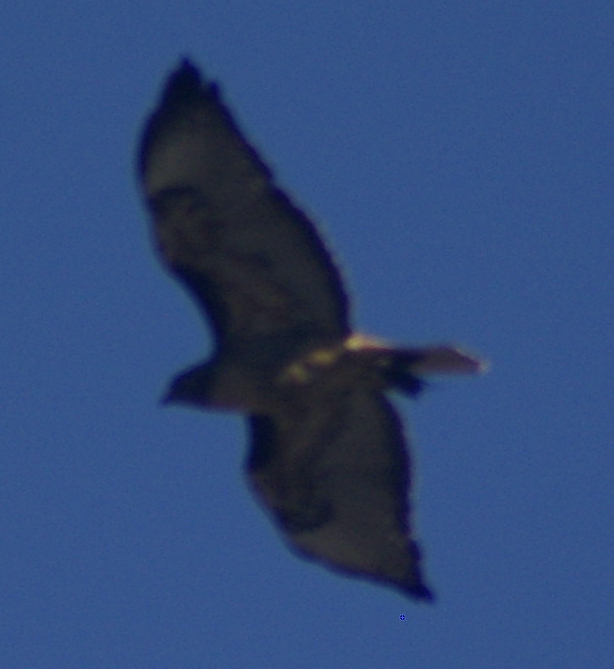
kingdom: Animalia
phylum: Chordata
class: Aves
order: Accipitriformes
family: Accipitridae
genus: Buteo
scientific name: Buteo jamaicensis
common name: Red-tailed hawk
